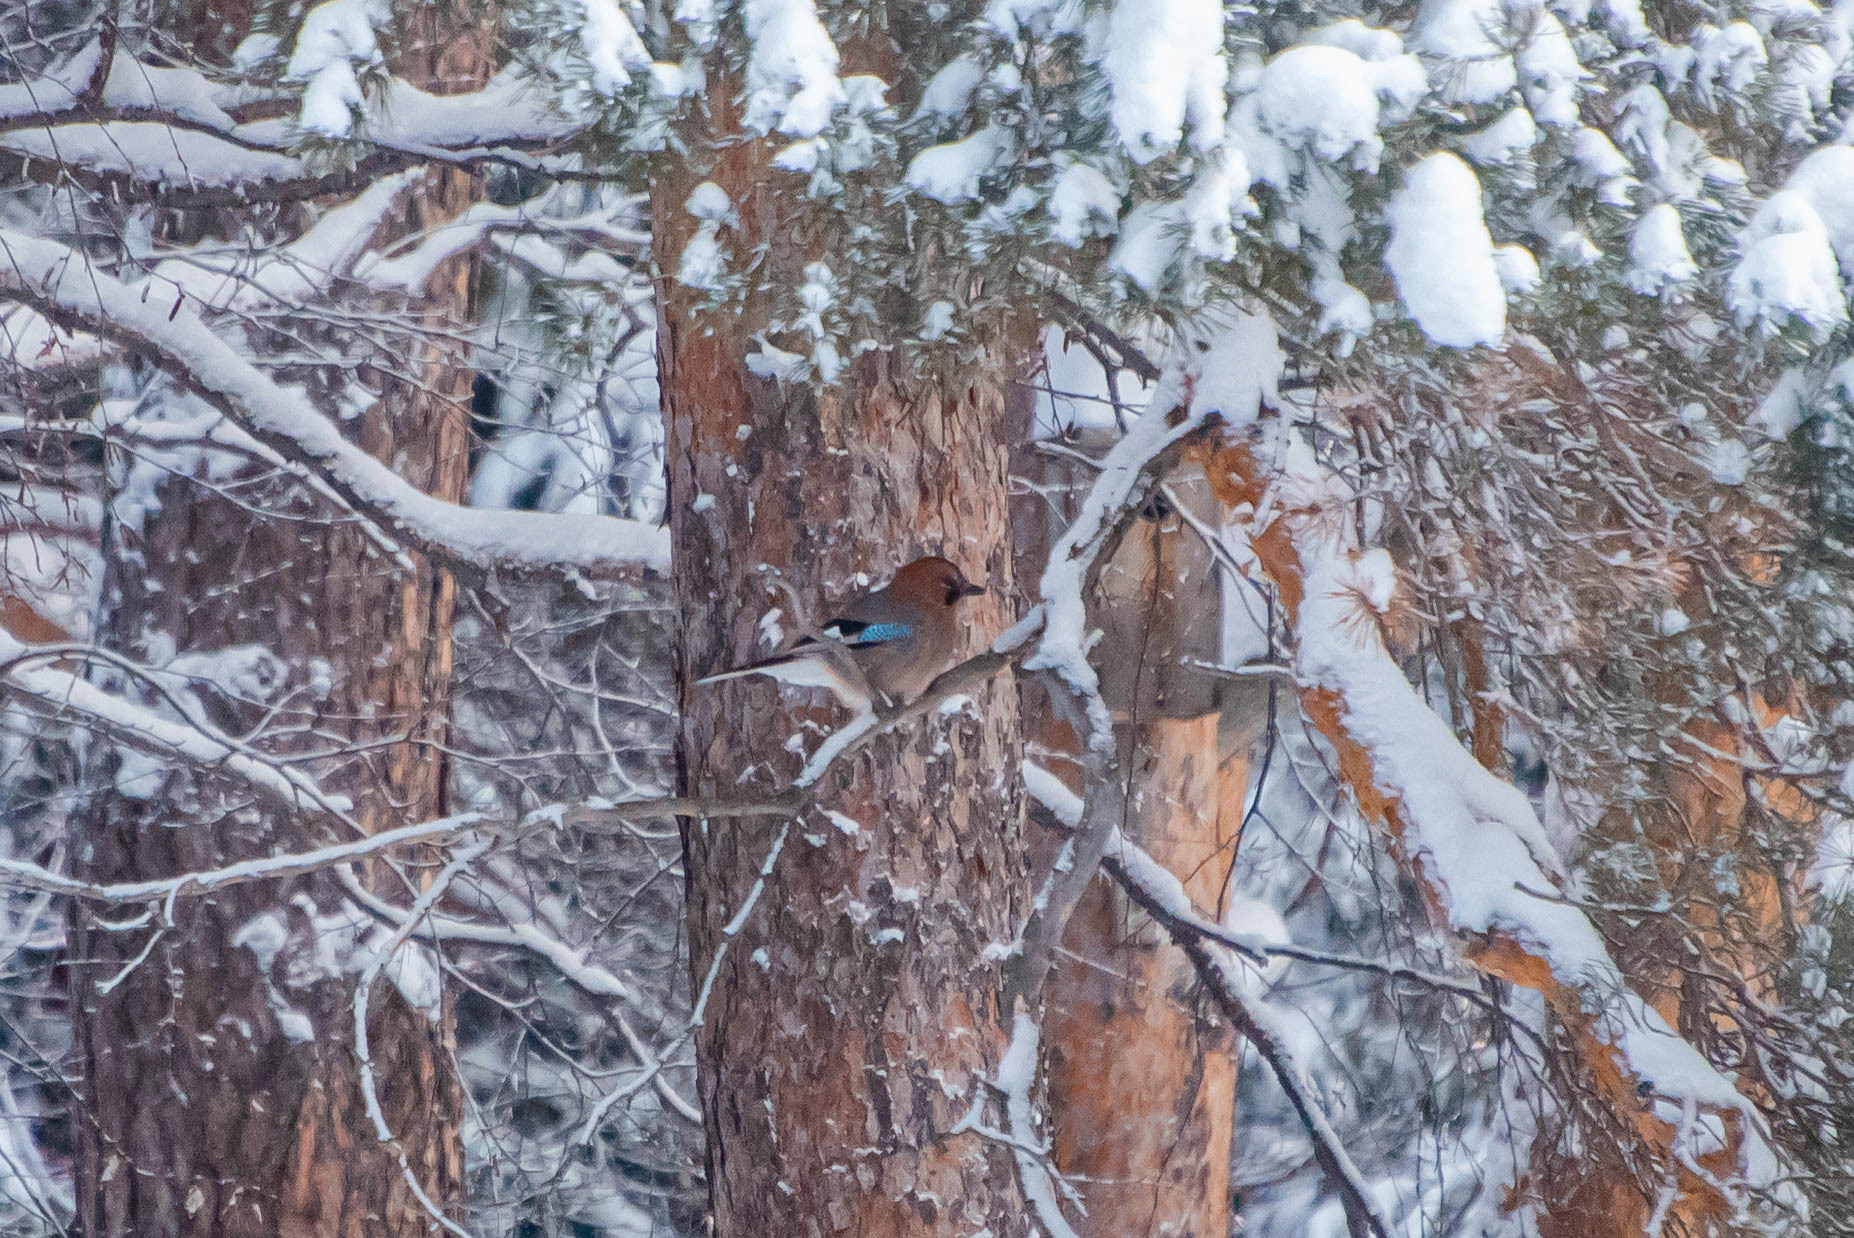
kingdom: Animalia
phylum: Chordata
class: Aves
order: Passeriformes
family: Corvidae
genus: Garrulus
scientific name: Garrulus glandarius
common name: Eurasian jay
